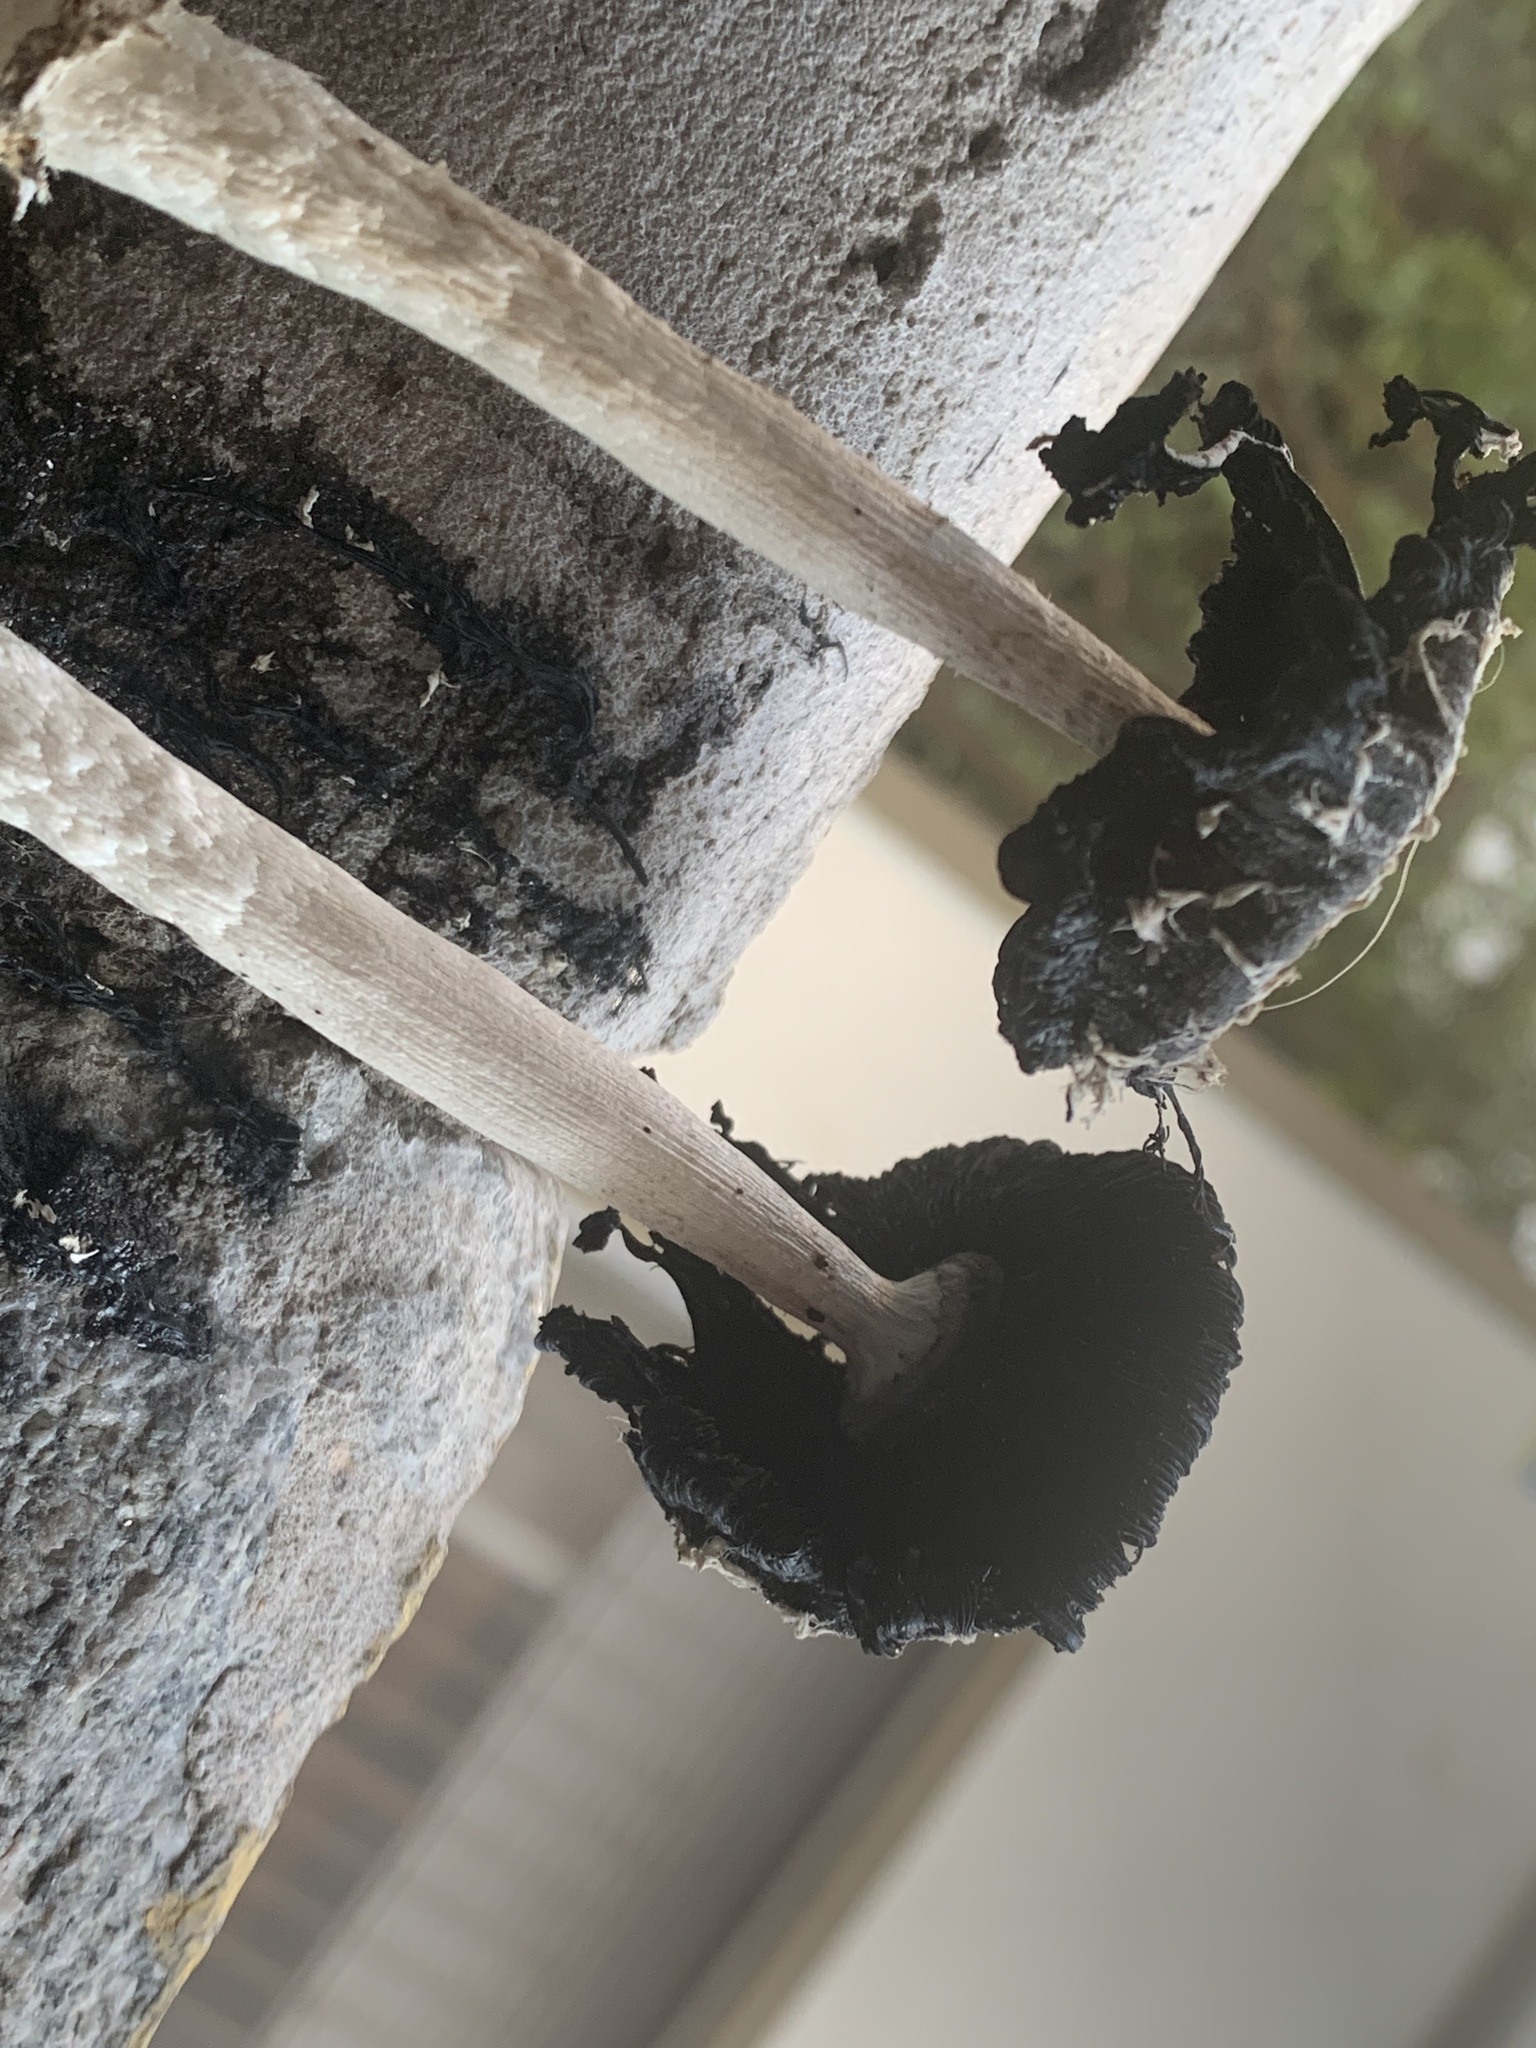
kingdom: Fungi
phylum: Basidiomycota
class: Agaricomycetes
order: Agaricales
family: Agaricaceae
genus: Coprinus
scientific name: Coprinus comatus
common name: Lawyer's wig
